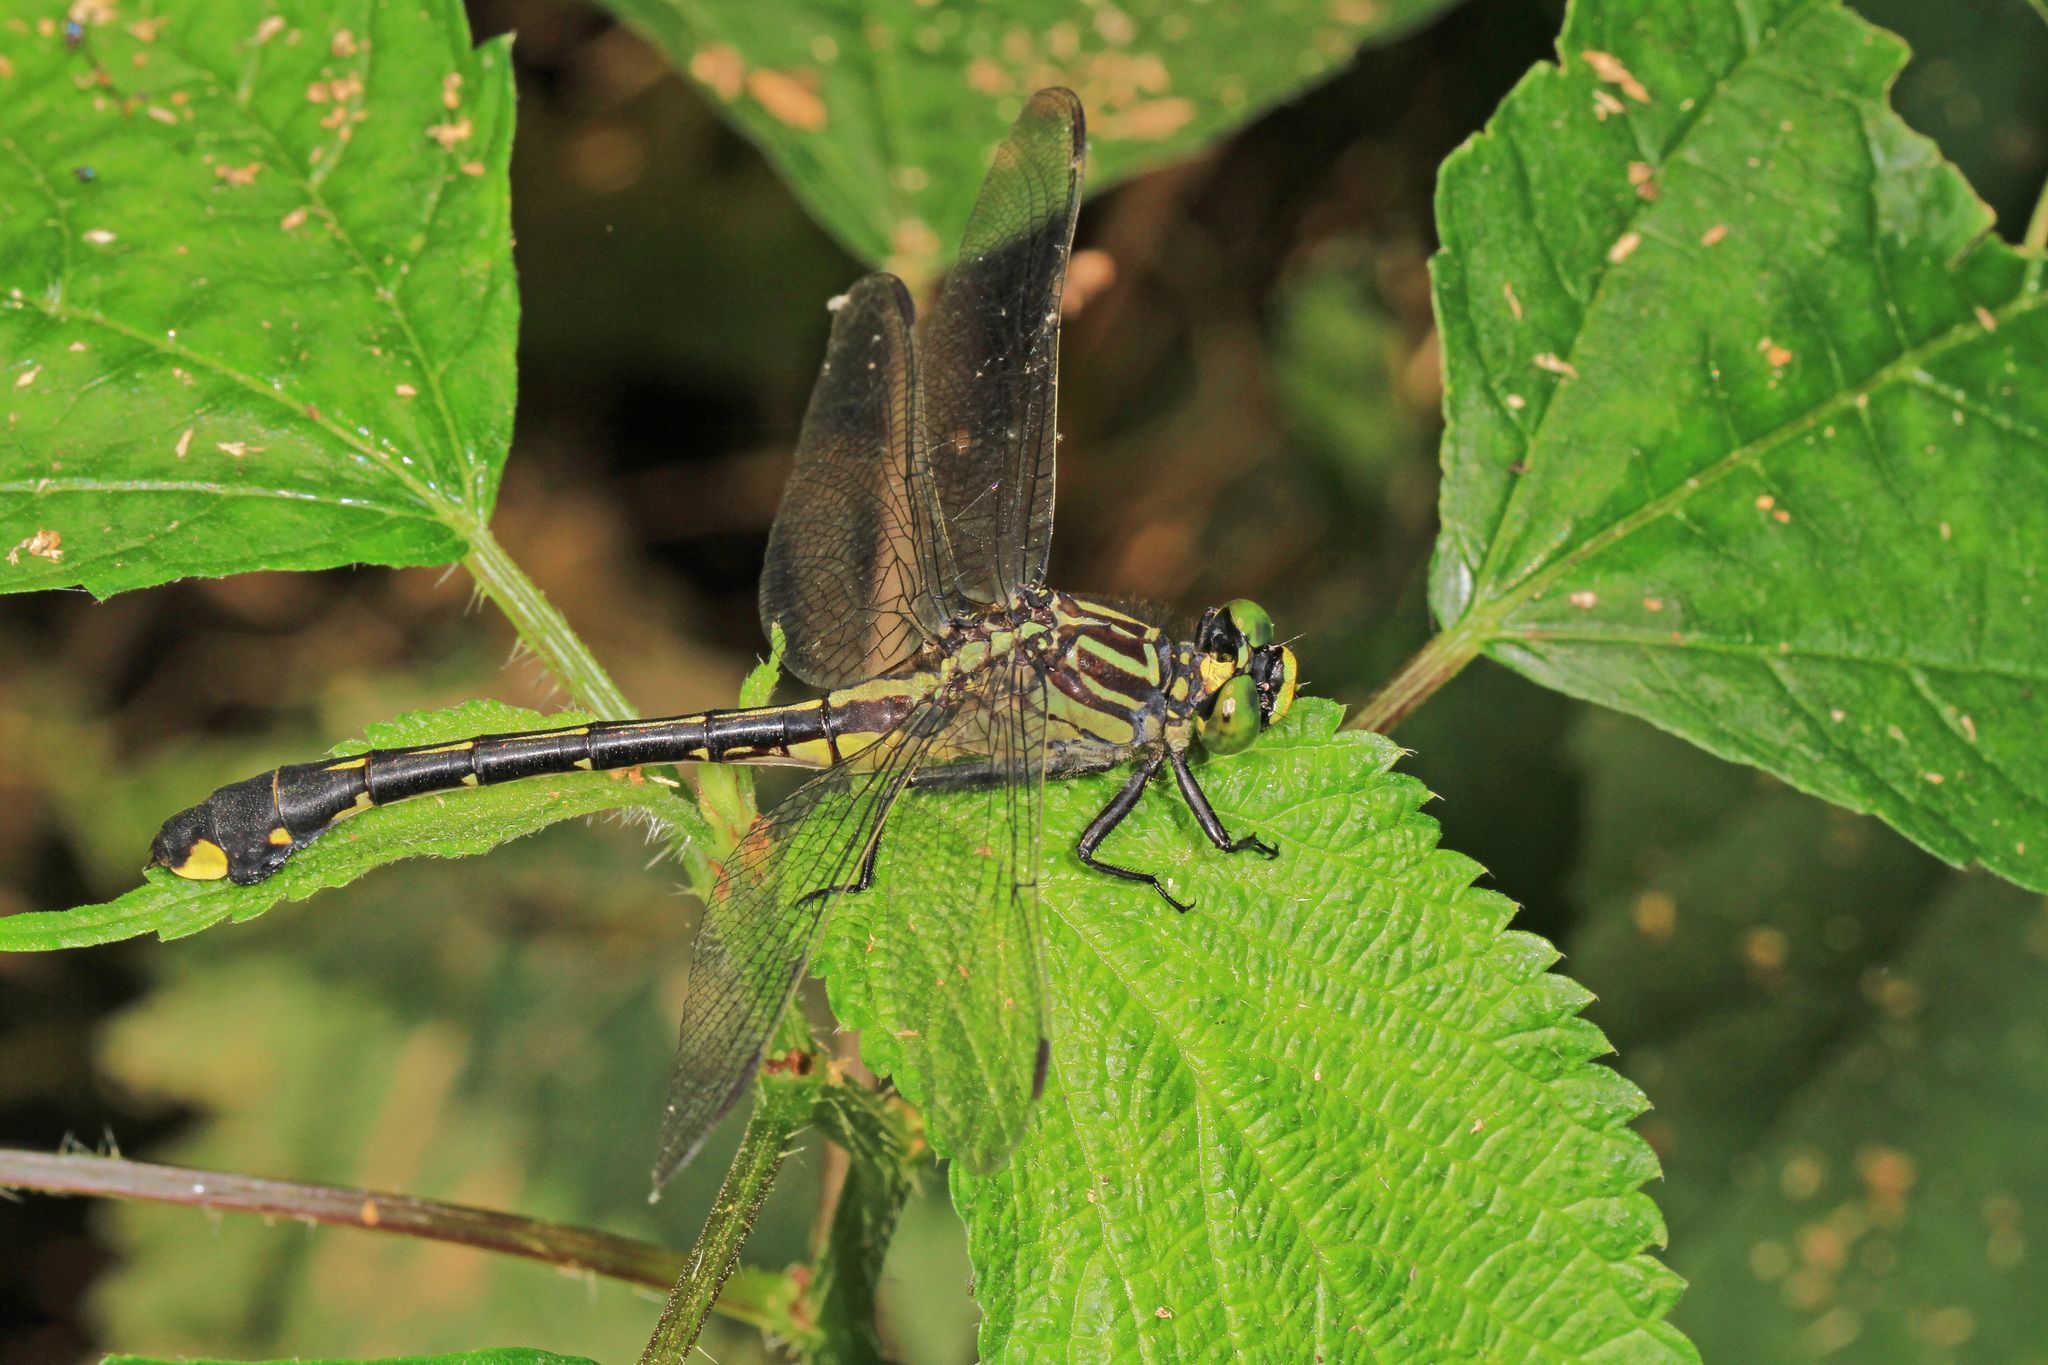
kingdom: Animalia
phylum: Arthropoda
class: Insecta
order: Odonata
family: Gomphidae
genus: Gomphurus
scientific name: Gomphurus vastus
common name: Cobra clubtail
